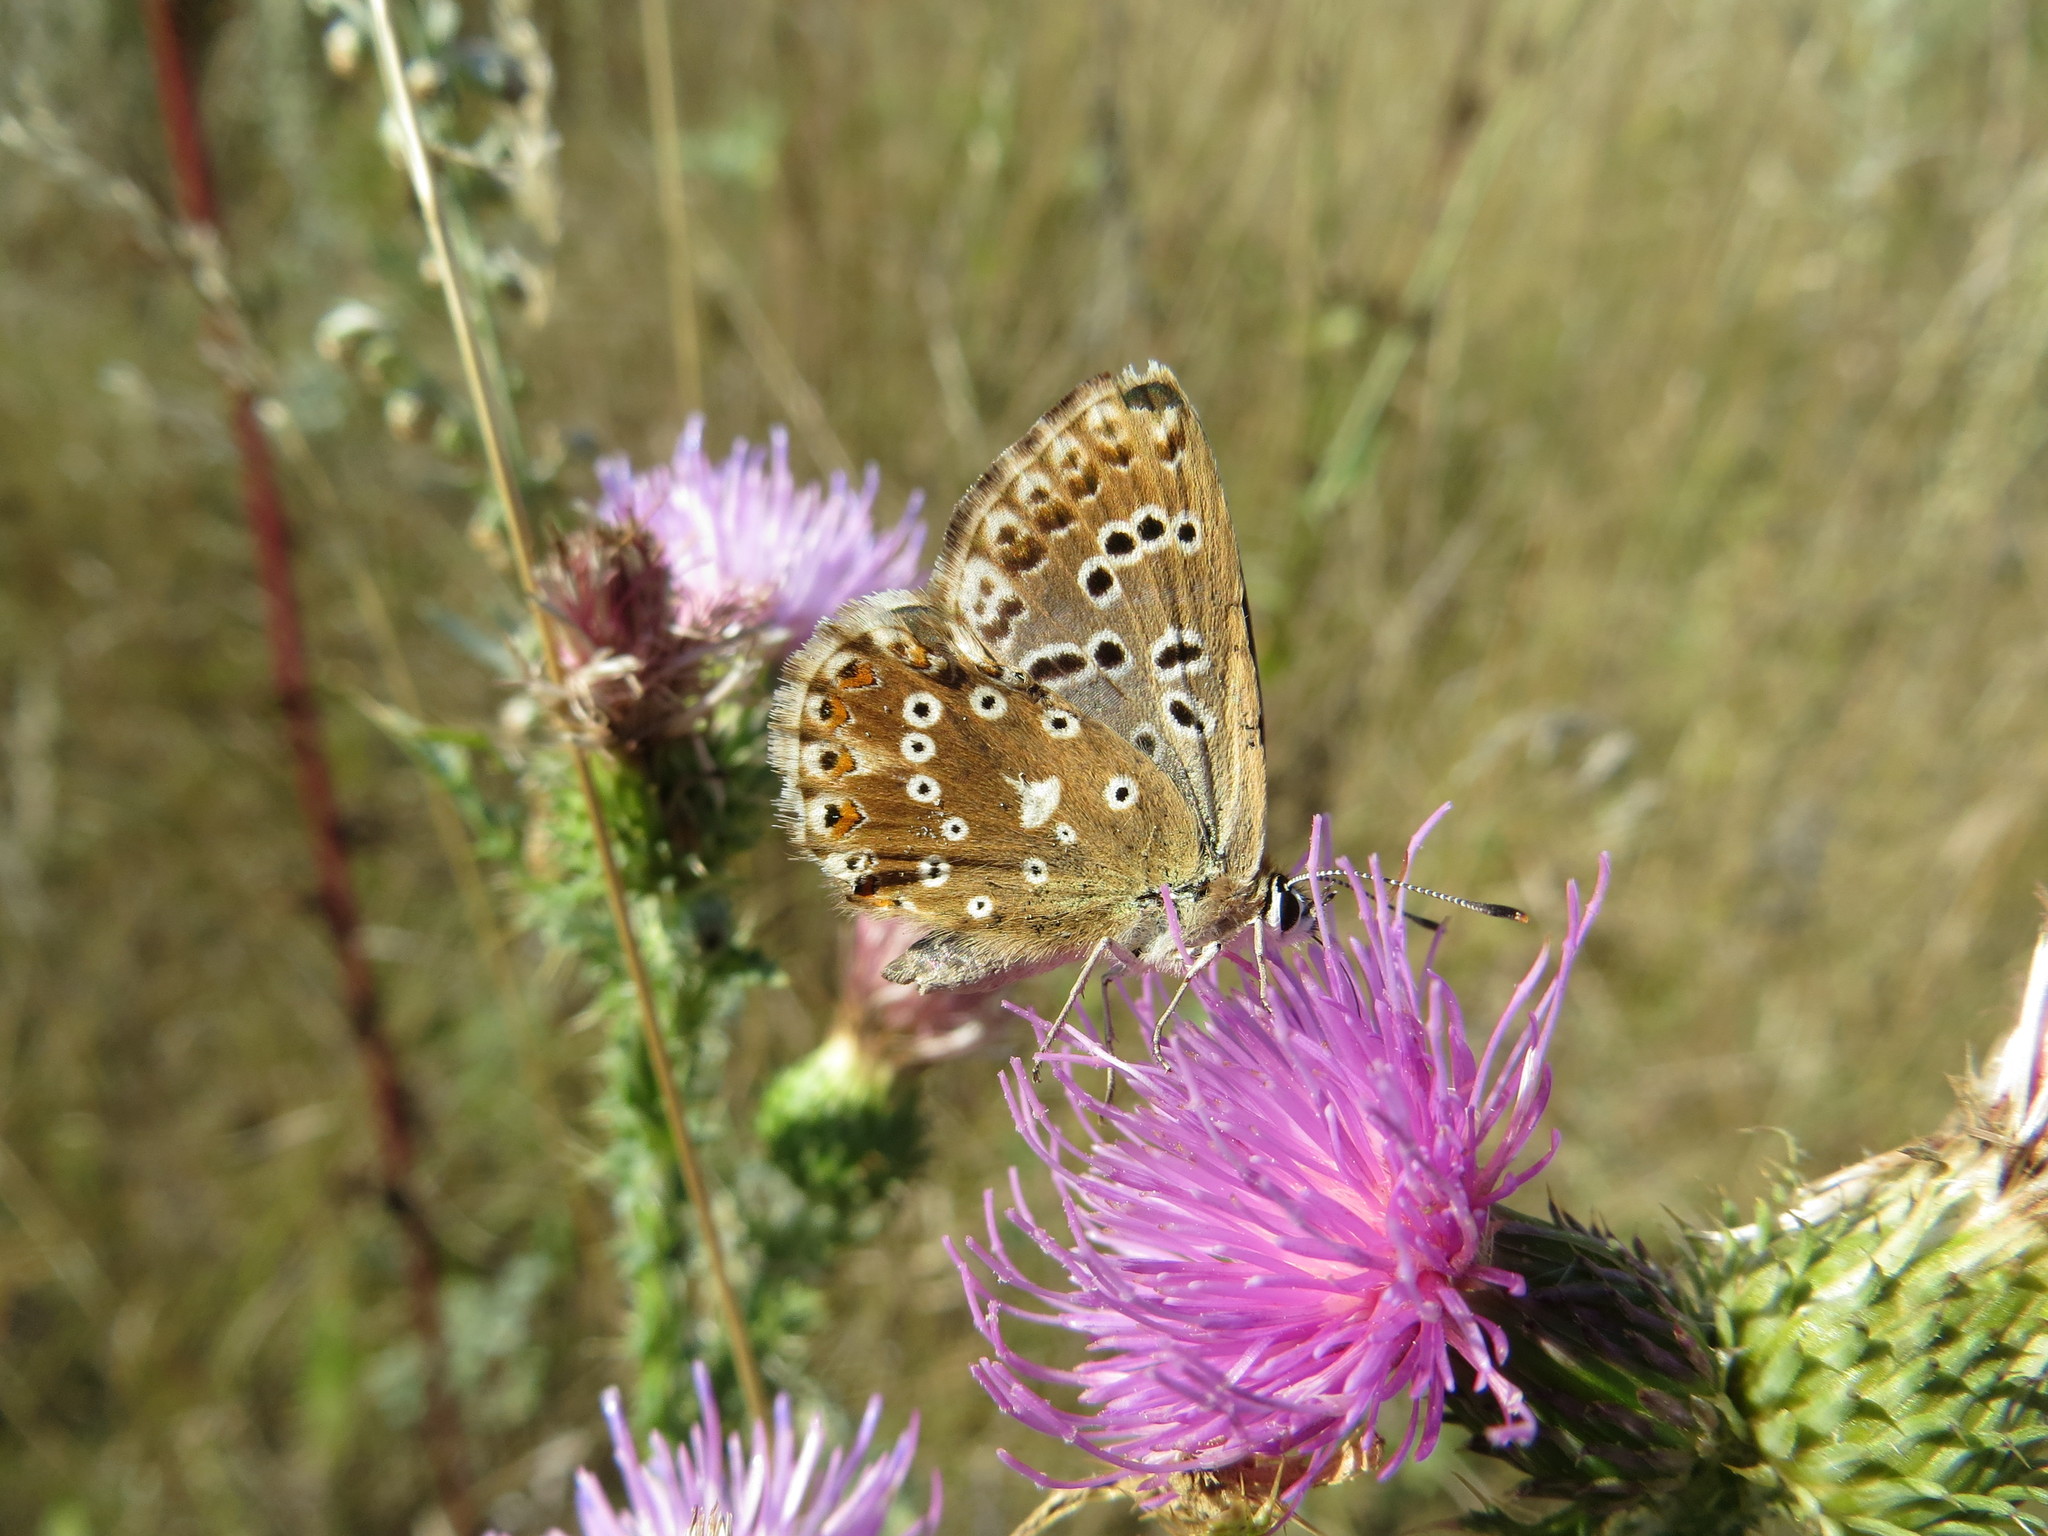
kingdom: Animalia
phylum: Arthropoda
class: Insecta
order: Lepidoptera
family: Lycaenidae
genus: Lysandra
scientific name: Lysandra coridon
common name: Chalkhill blue
